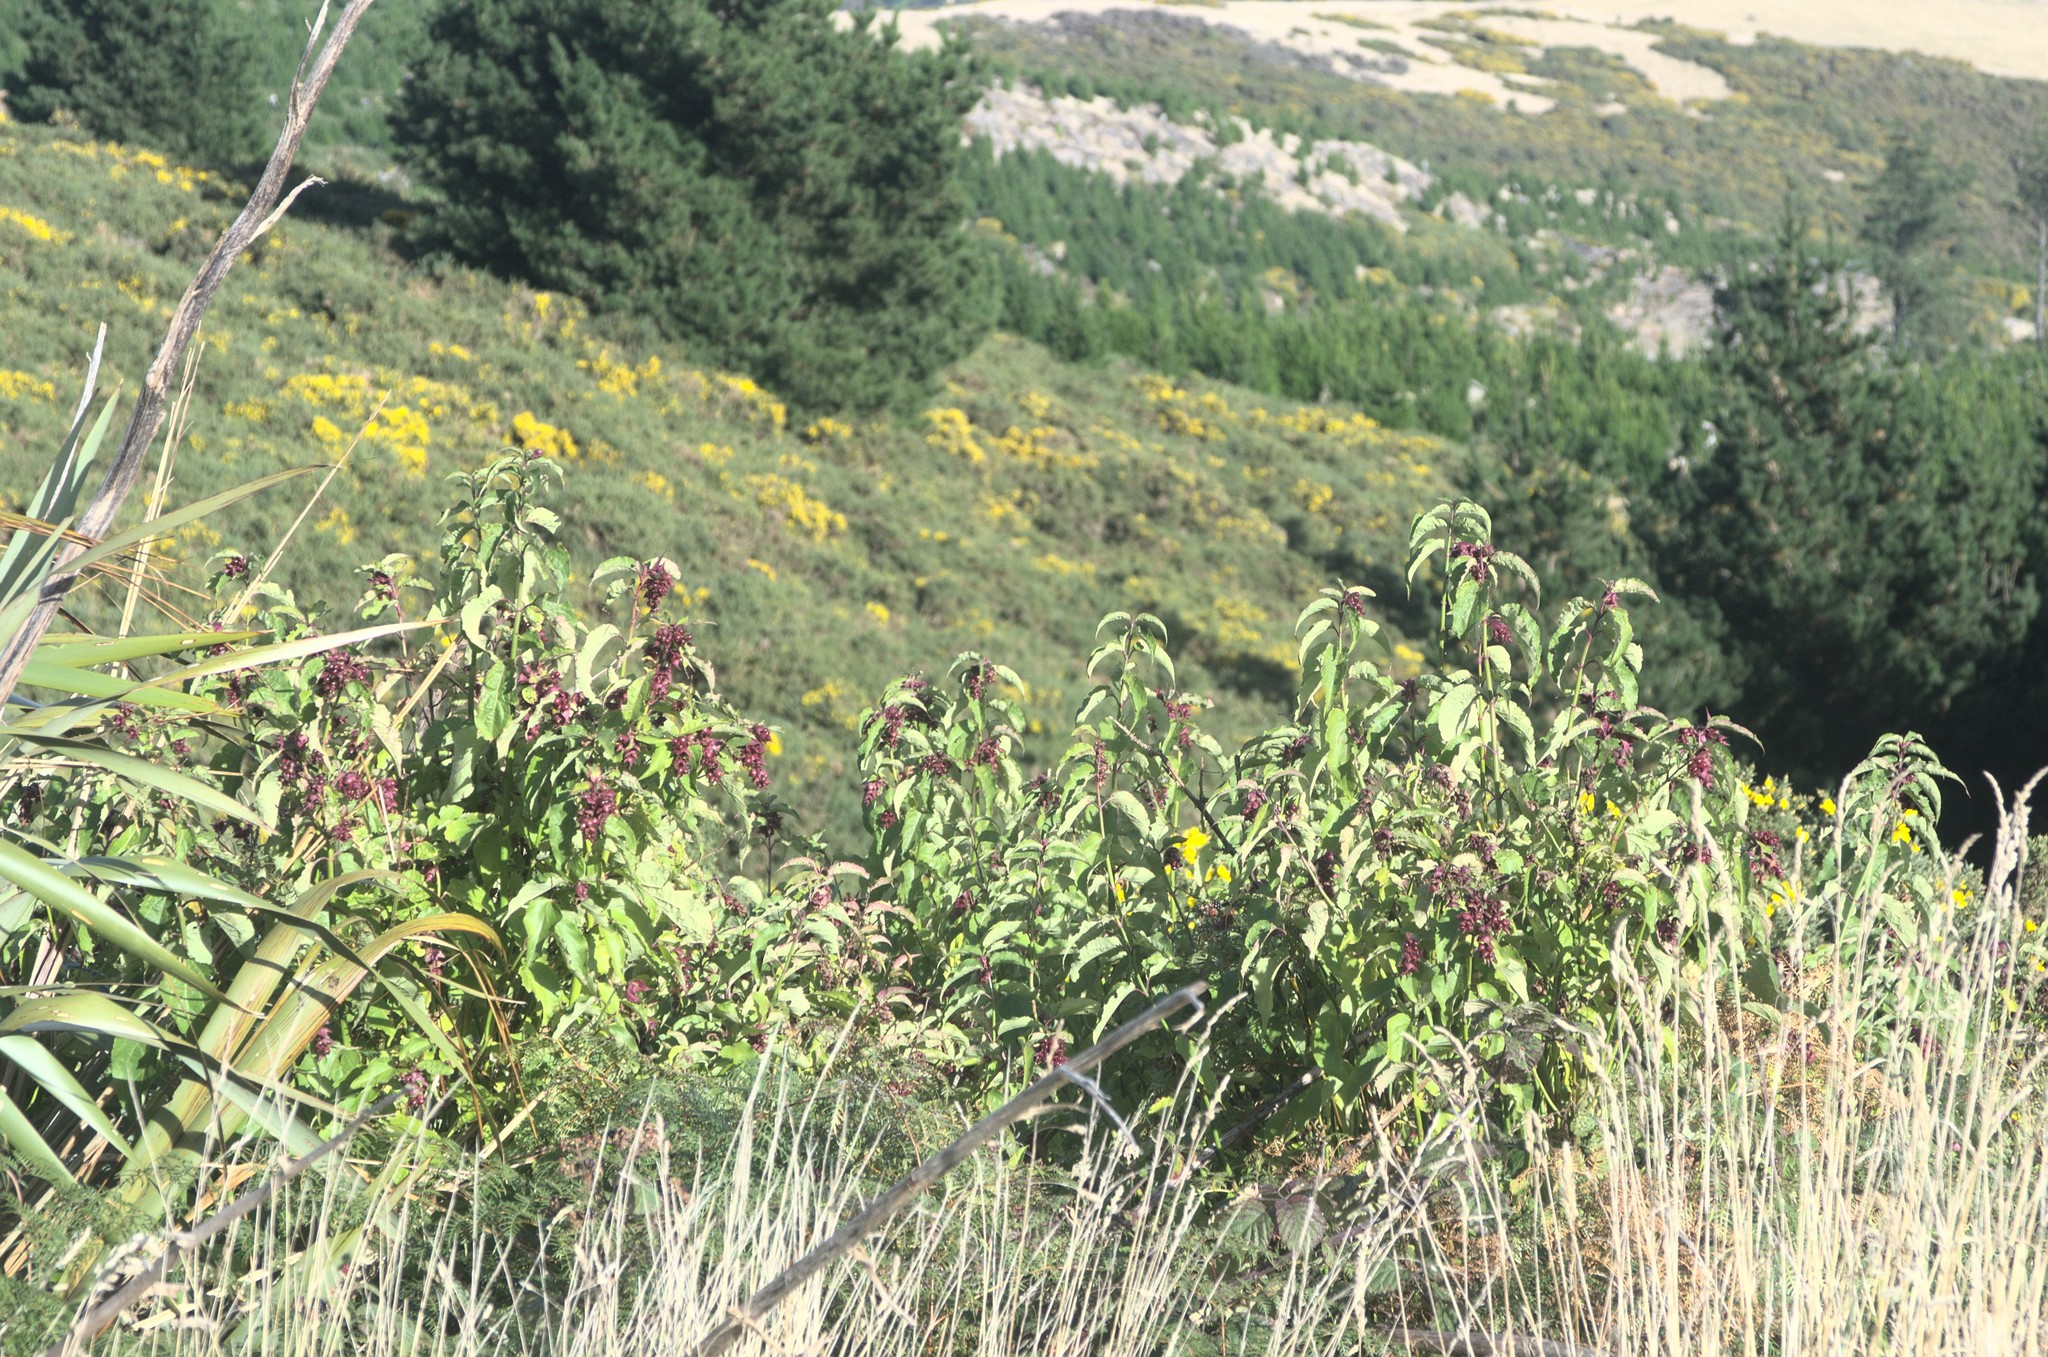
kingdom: Plantae
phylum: Tracheophyta
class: Magnoliopsida
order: Dipsacales
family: Caprifoliaceae
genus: Leycesteria
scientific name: Leycesteria formosa
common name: Himalayan honeysuckle
